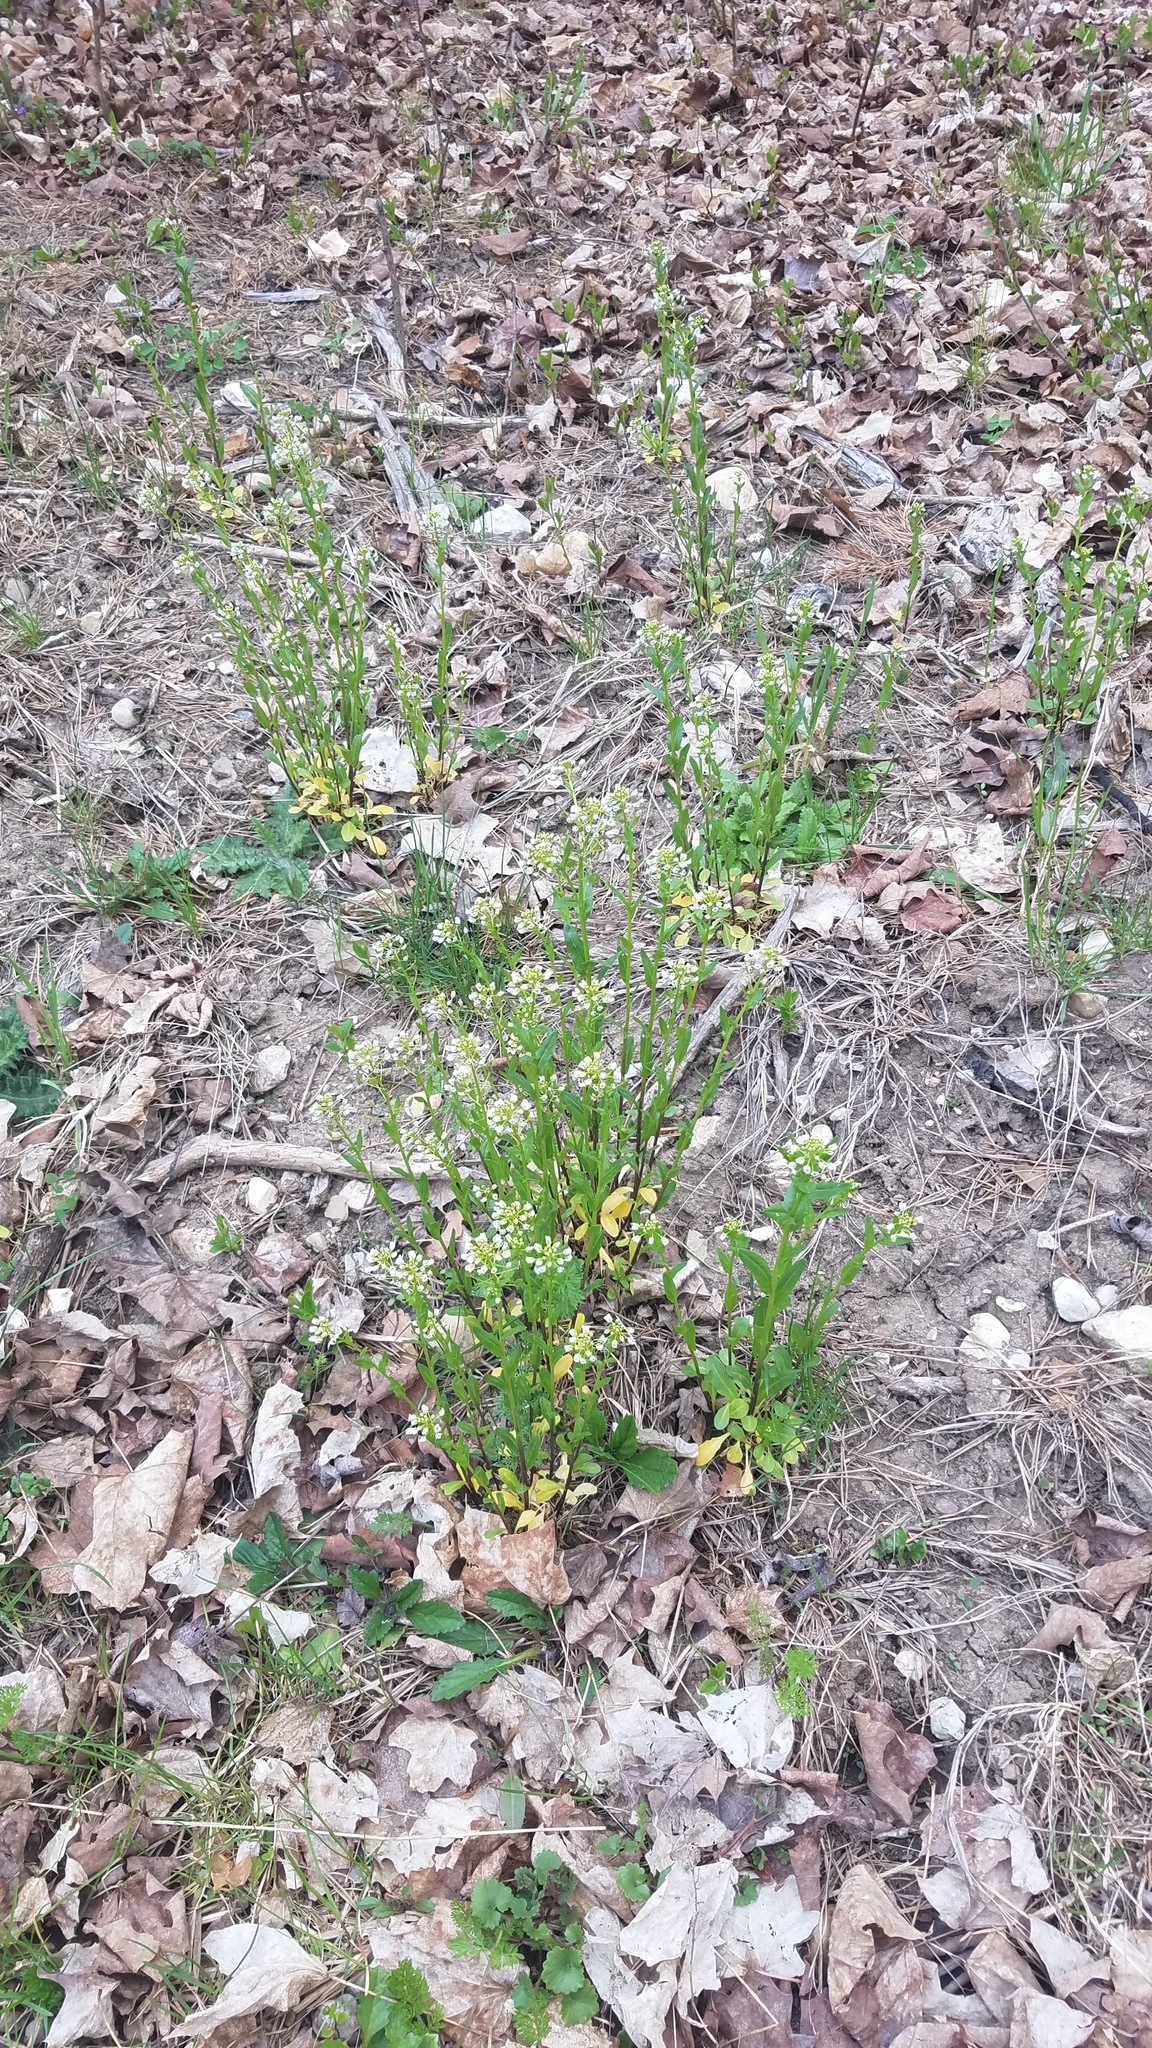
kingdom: Plantae
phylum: Tracheophyta
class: Magnoliopsida
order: Brassicales
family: Brassicaceae
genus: Thlaspi
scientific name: Thlaspi arvense
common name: Field pennycress
